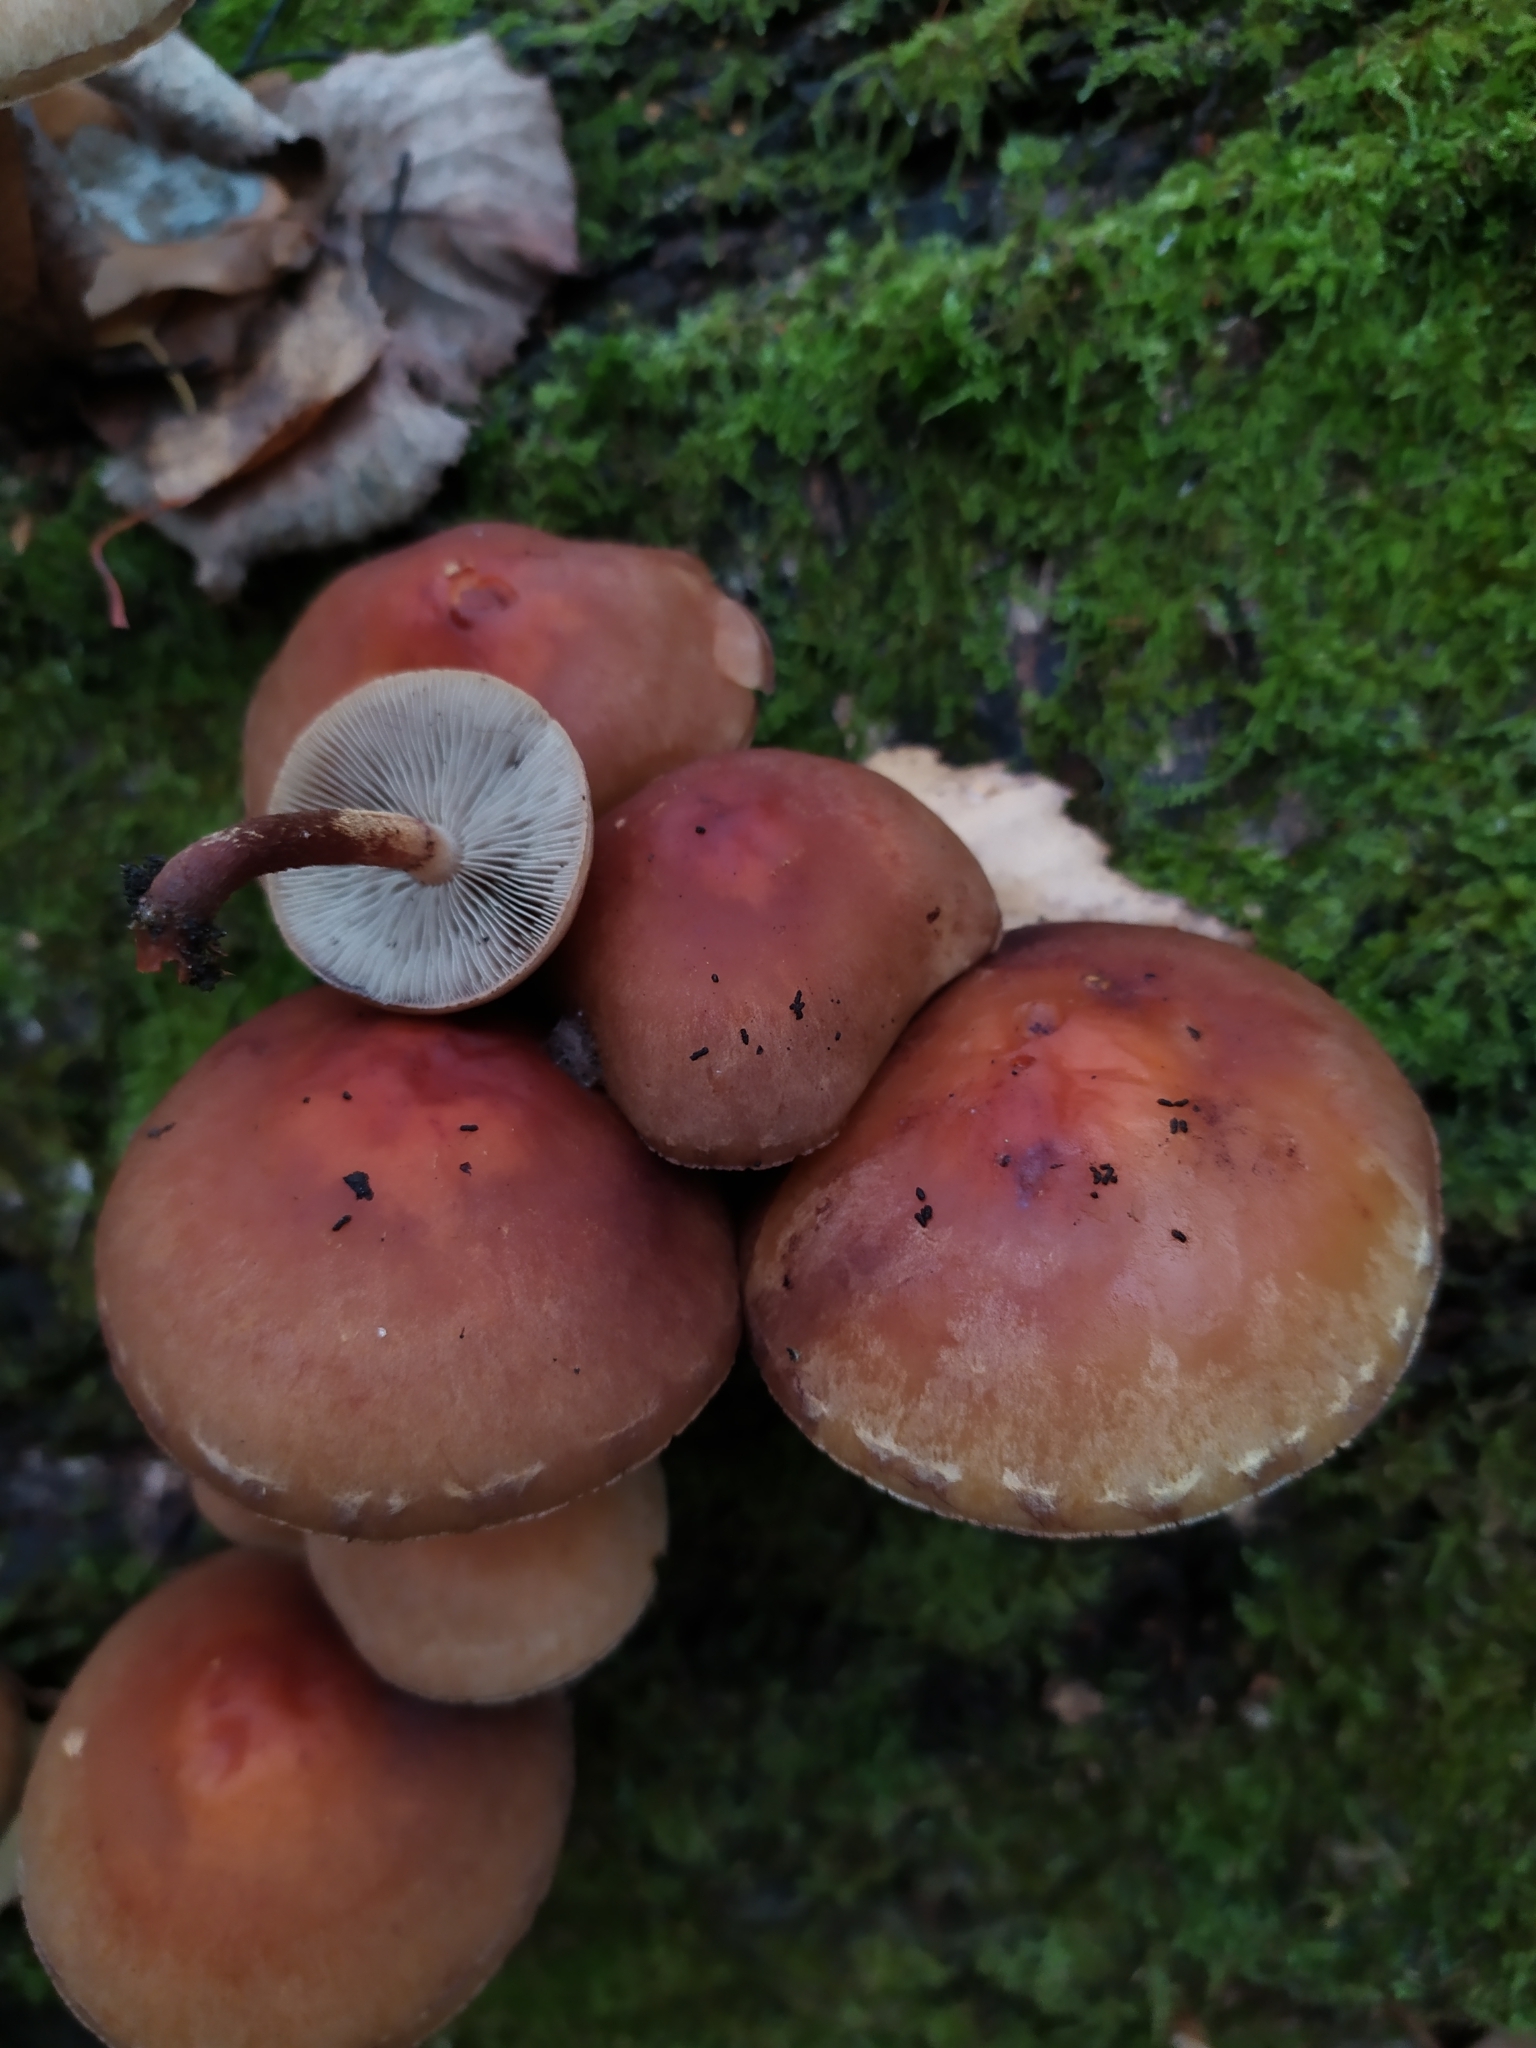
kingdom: Fungi
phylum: Basidiomycota
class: Agaricomycetes
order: Agaricales
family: Strophariaceae
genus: Hypholoma
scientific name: Hypholoma lateritium
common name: Brick caps
